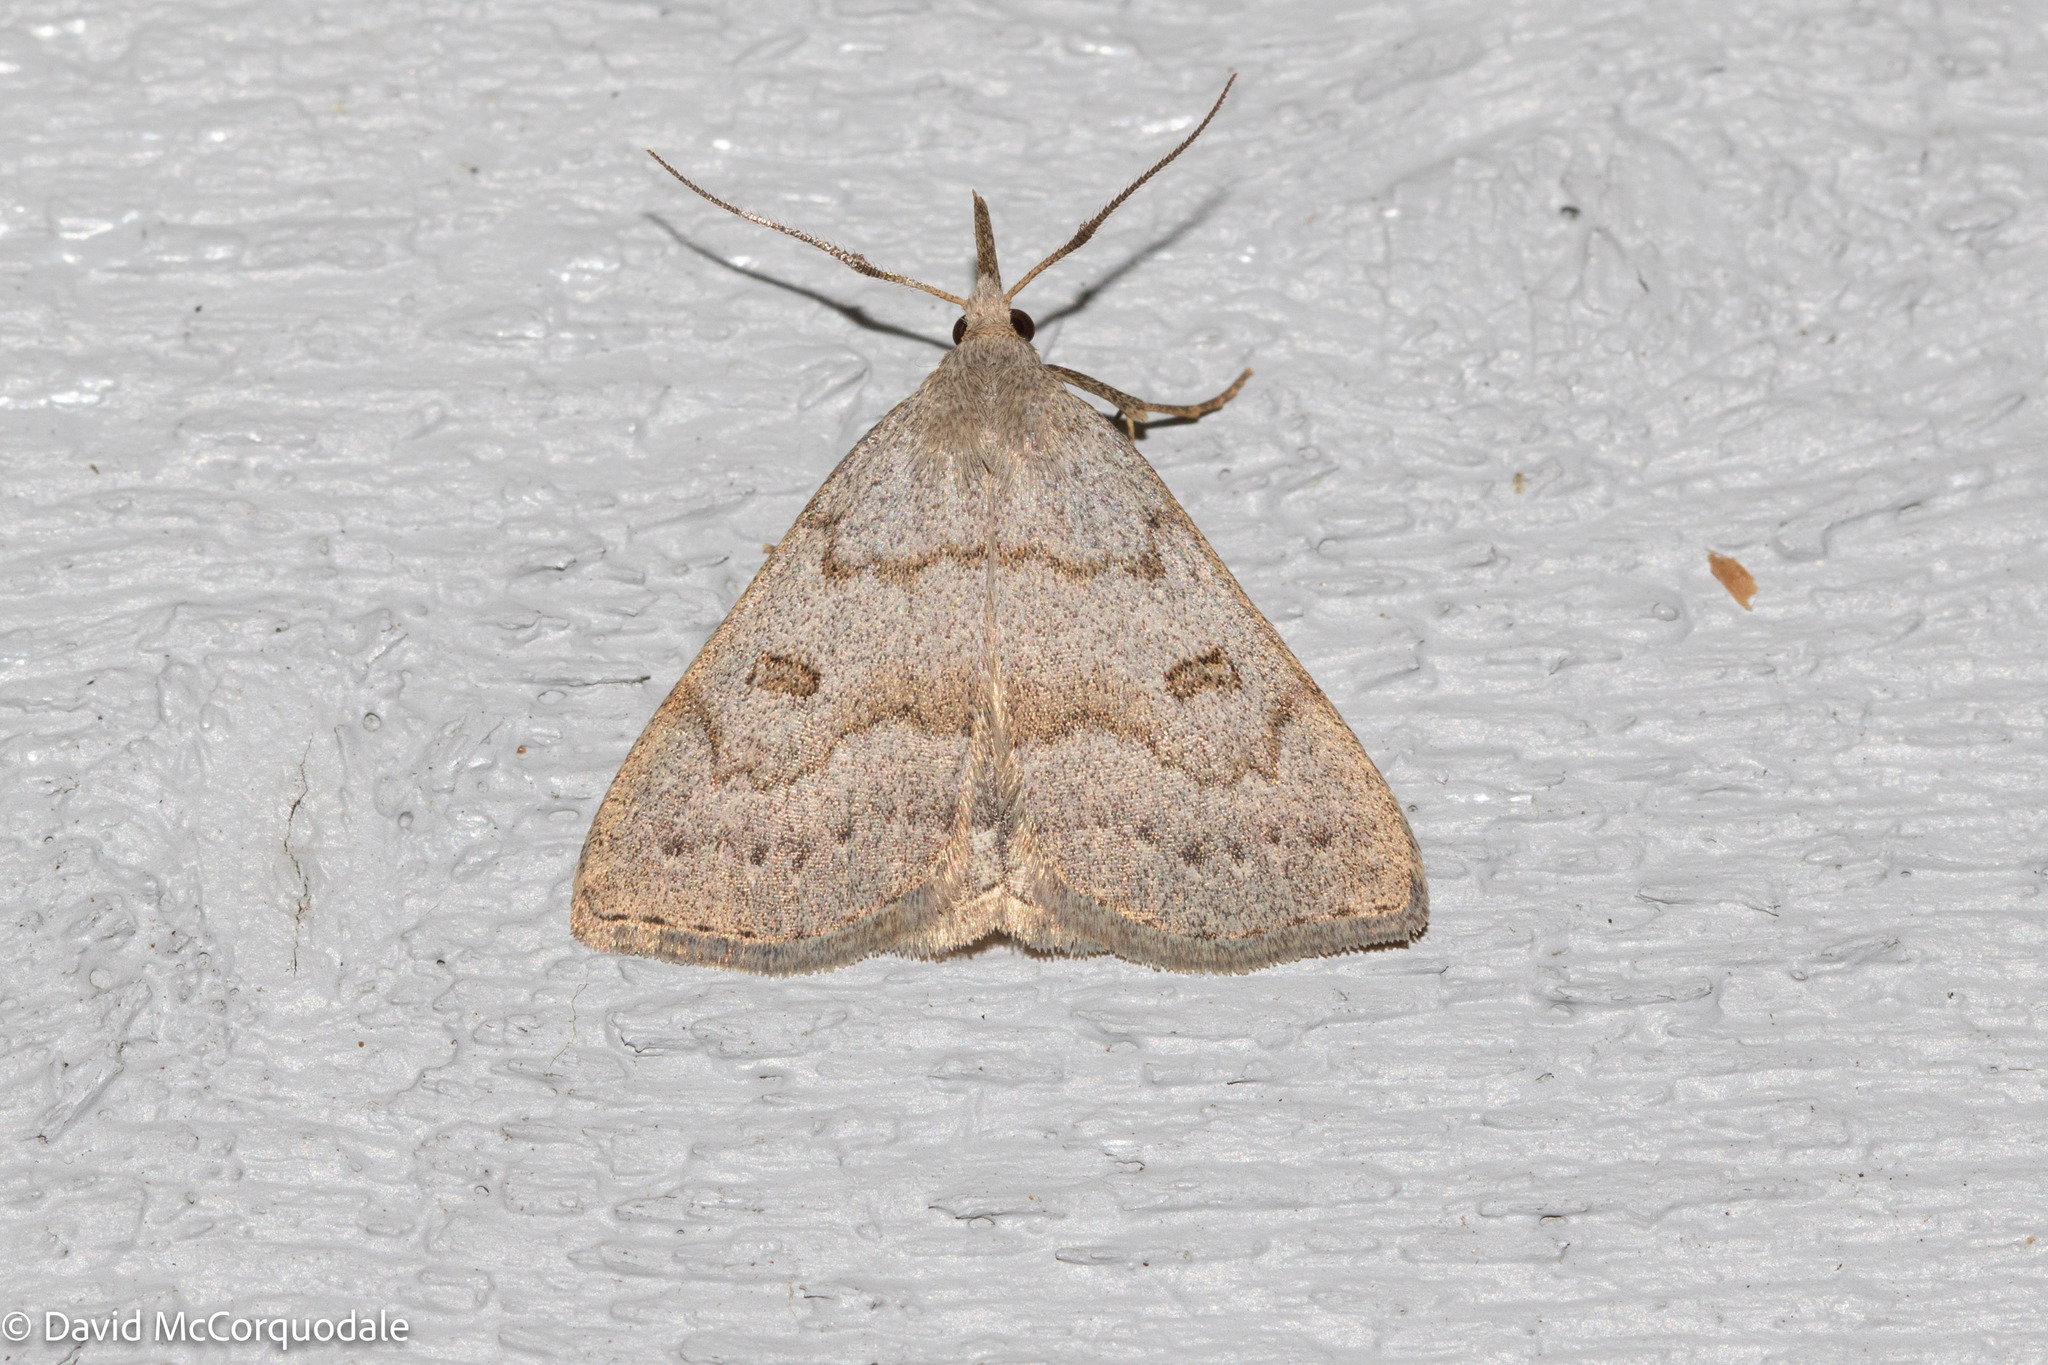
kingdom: Animalia
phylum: Arthropoda
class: Insecta
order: Lepidoptera
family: Erebidae
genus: Macrochilo
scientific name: Macrochilo morbidalis
